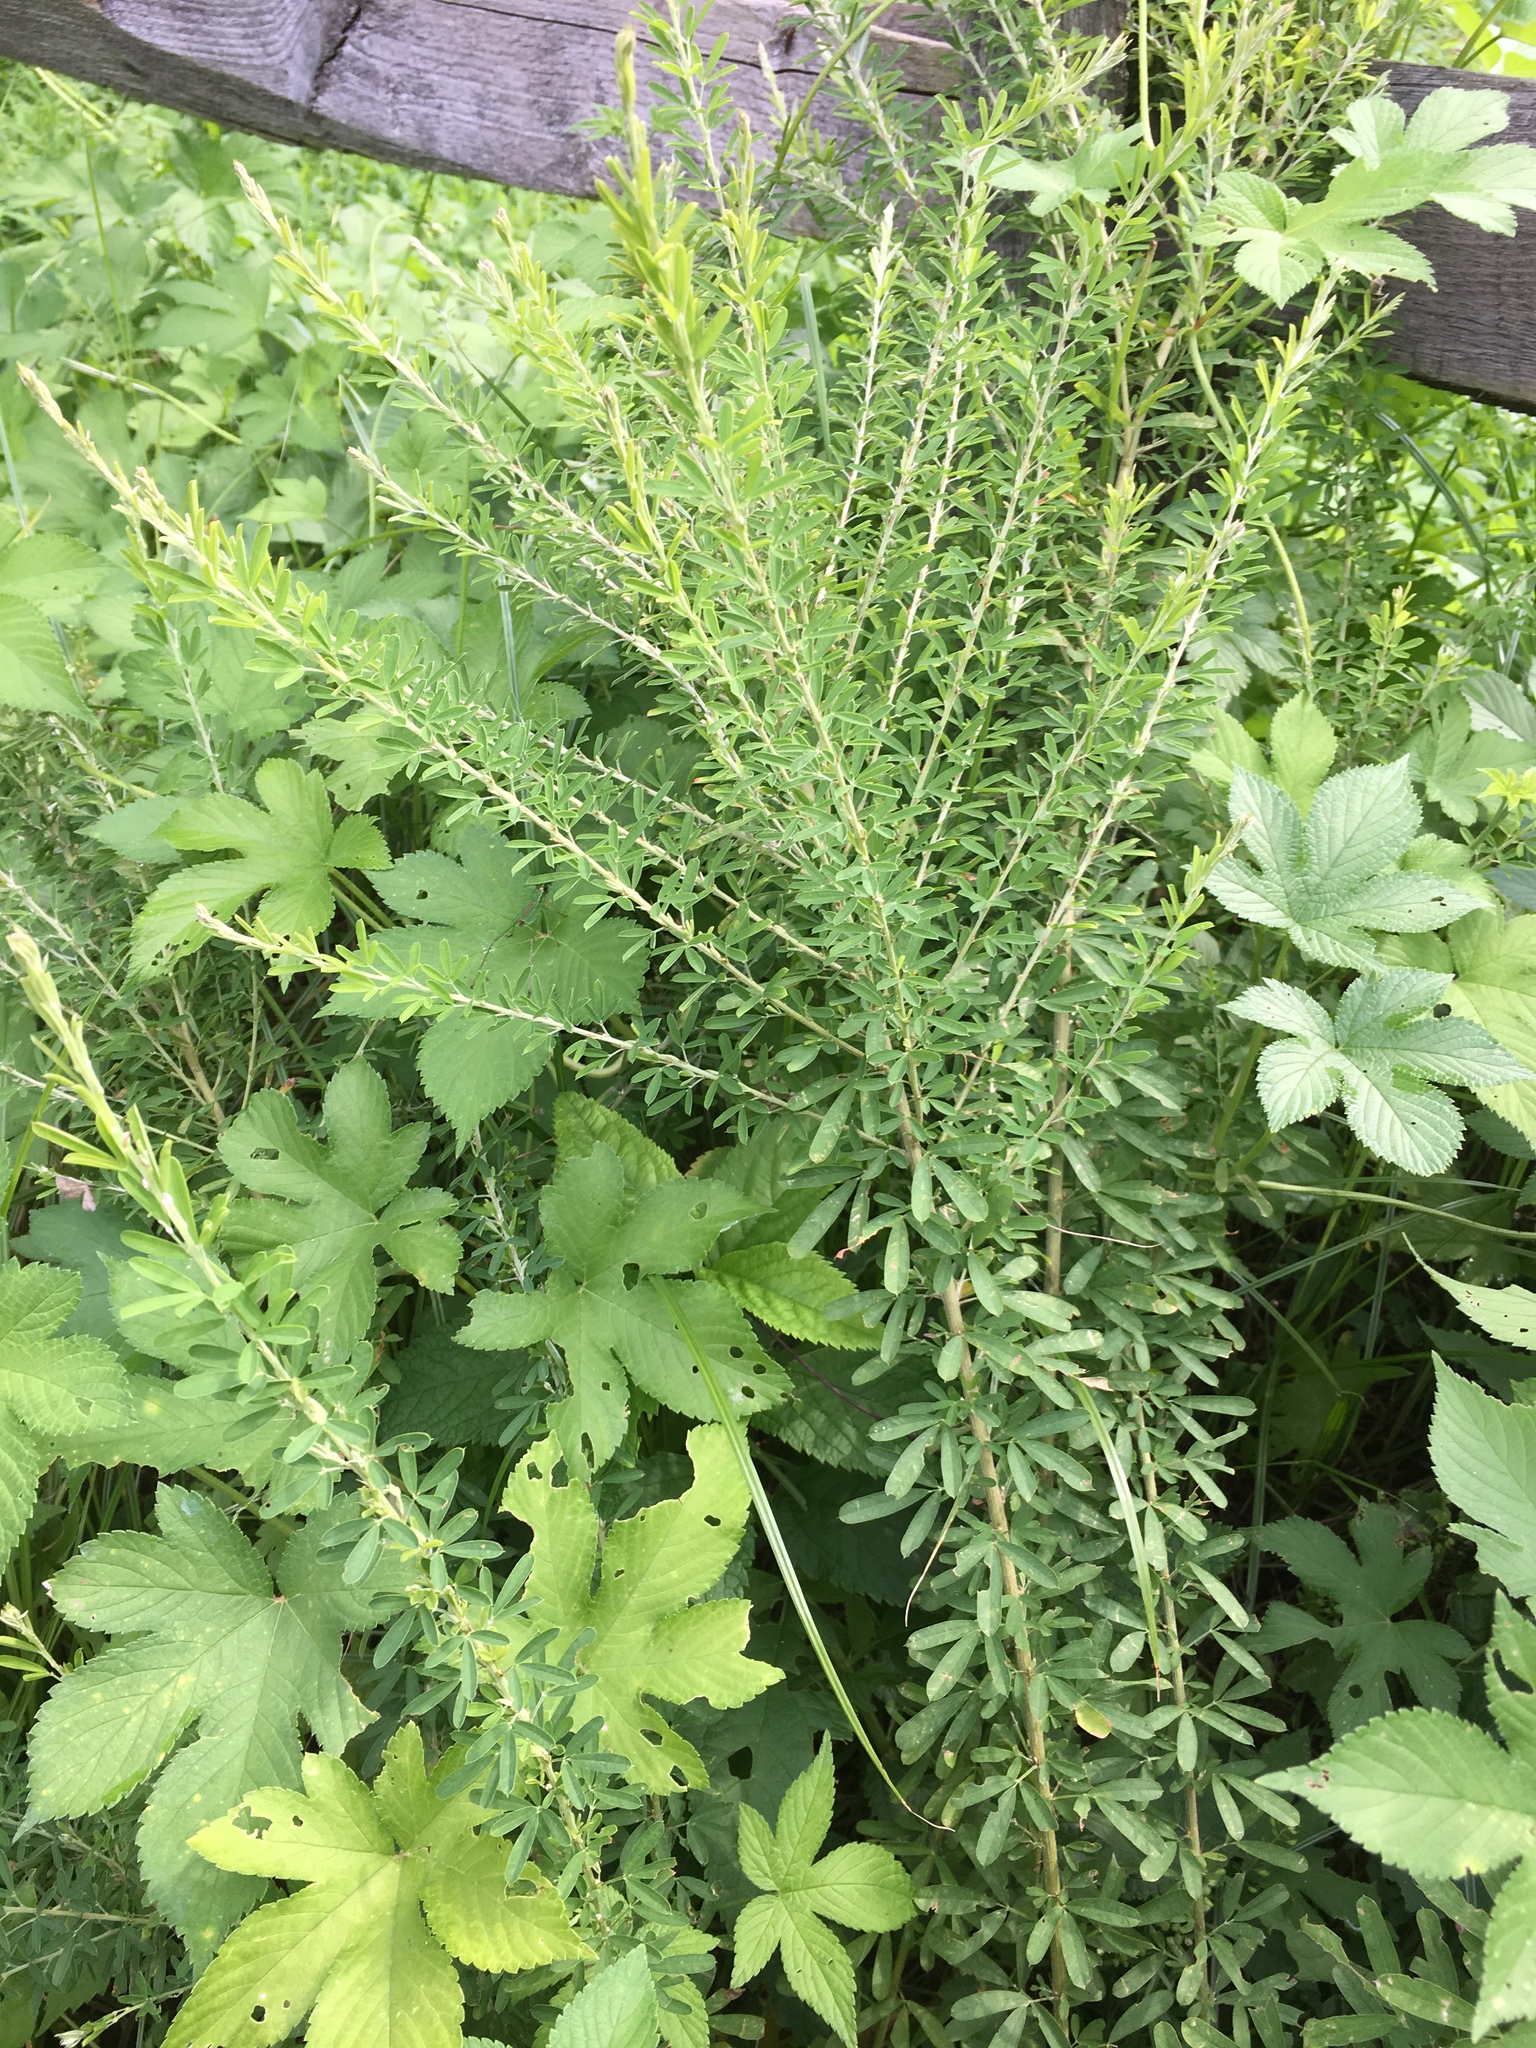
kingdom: Plantae
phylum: Tracheophyta
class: Magnoliopsida
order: Fabales
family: Fabaceae
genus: Lespedeza
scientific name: Lespedeza cuneata
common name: Chinese bush-clover
